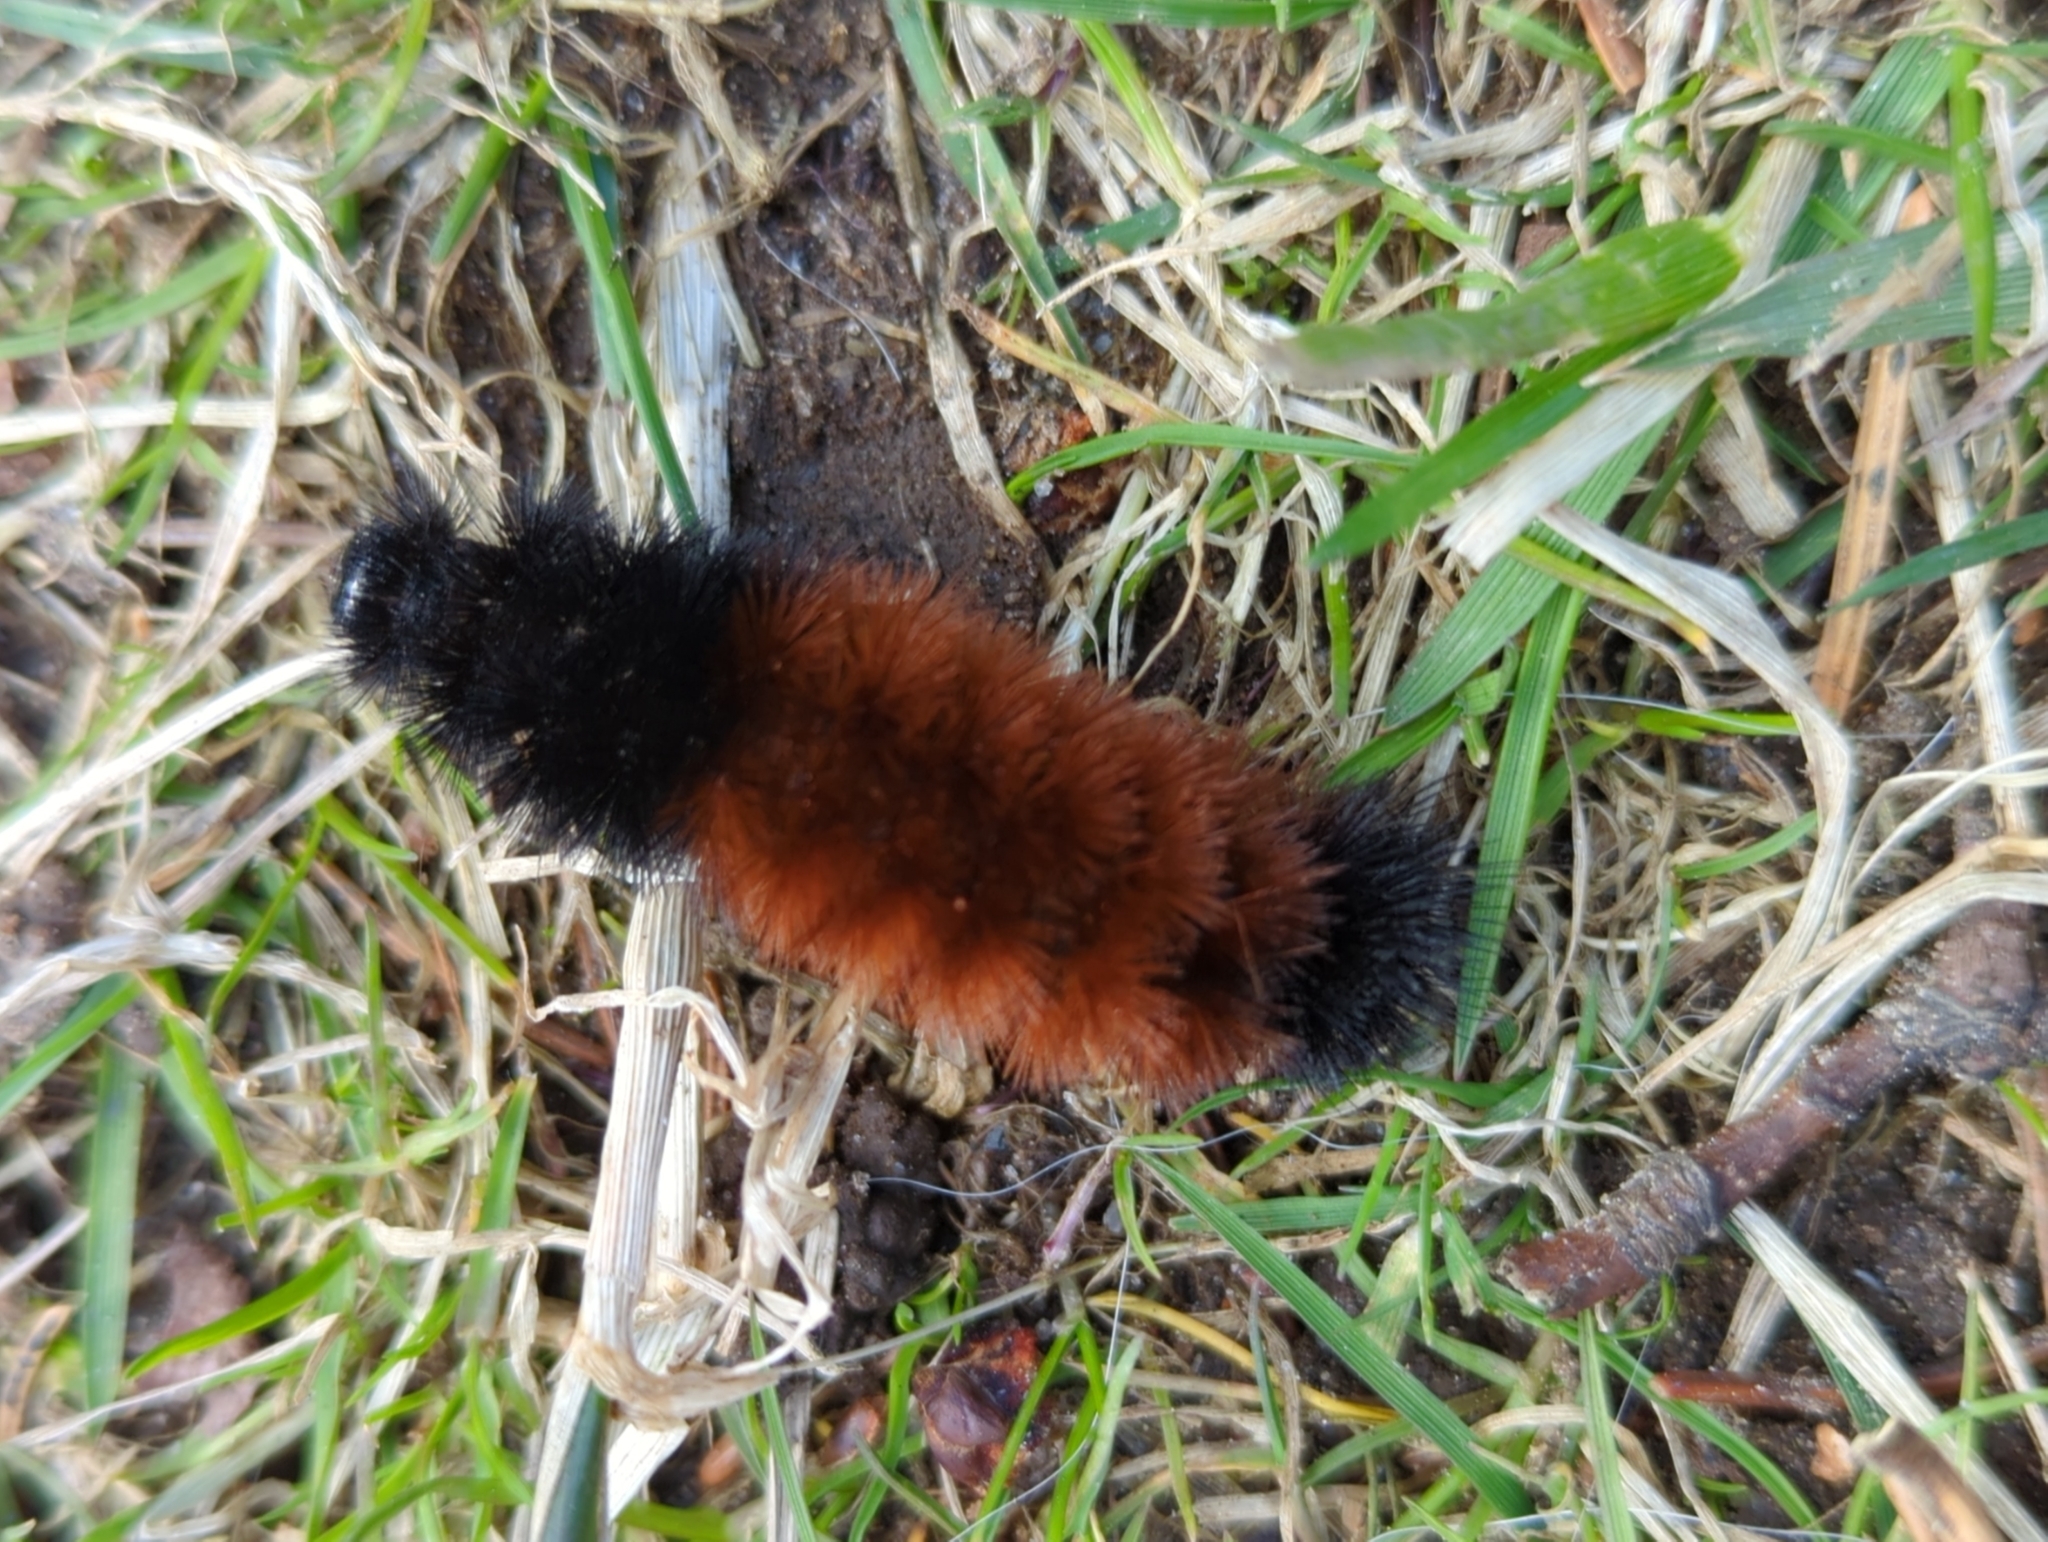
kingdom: Animalia
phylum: Arthropoda
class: Insecta
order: Lepidoptera
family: Erebidae
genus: Pyrrharctia
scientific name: Pyrrharctia isabella
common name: Isabella tiger moth
